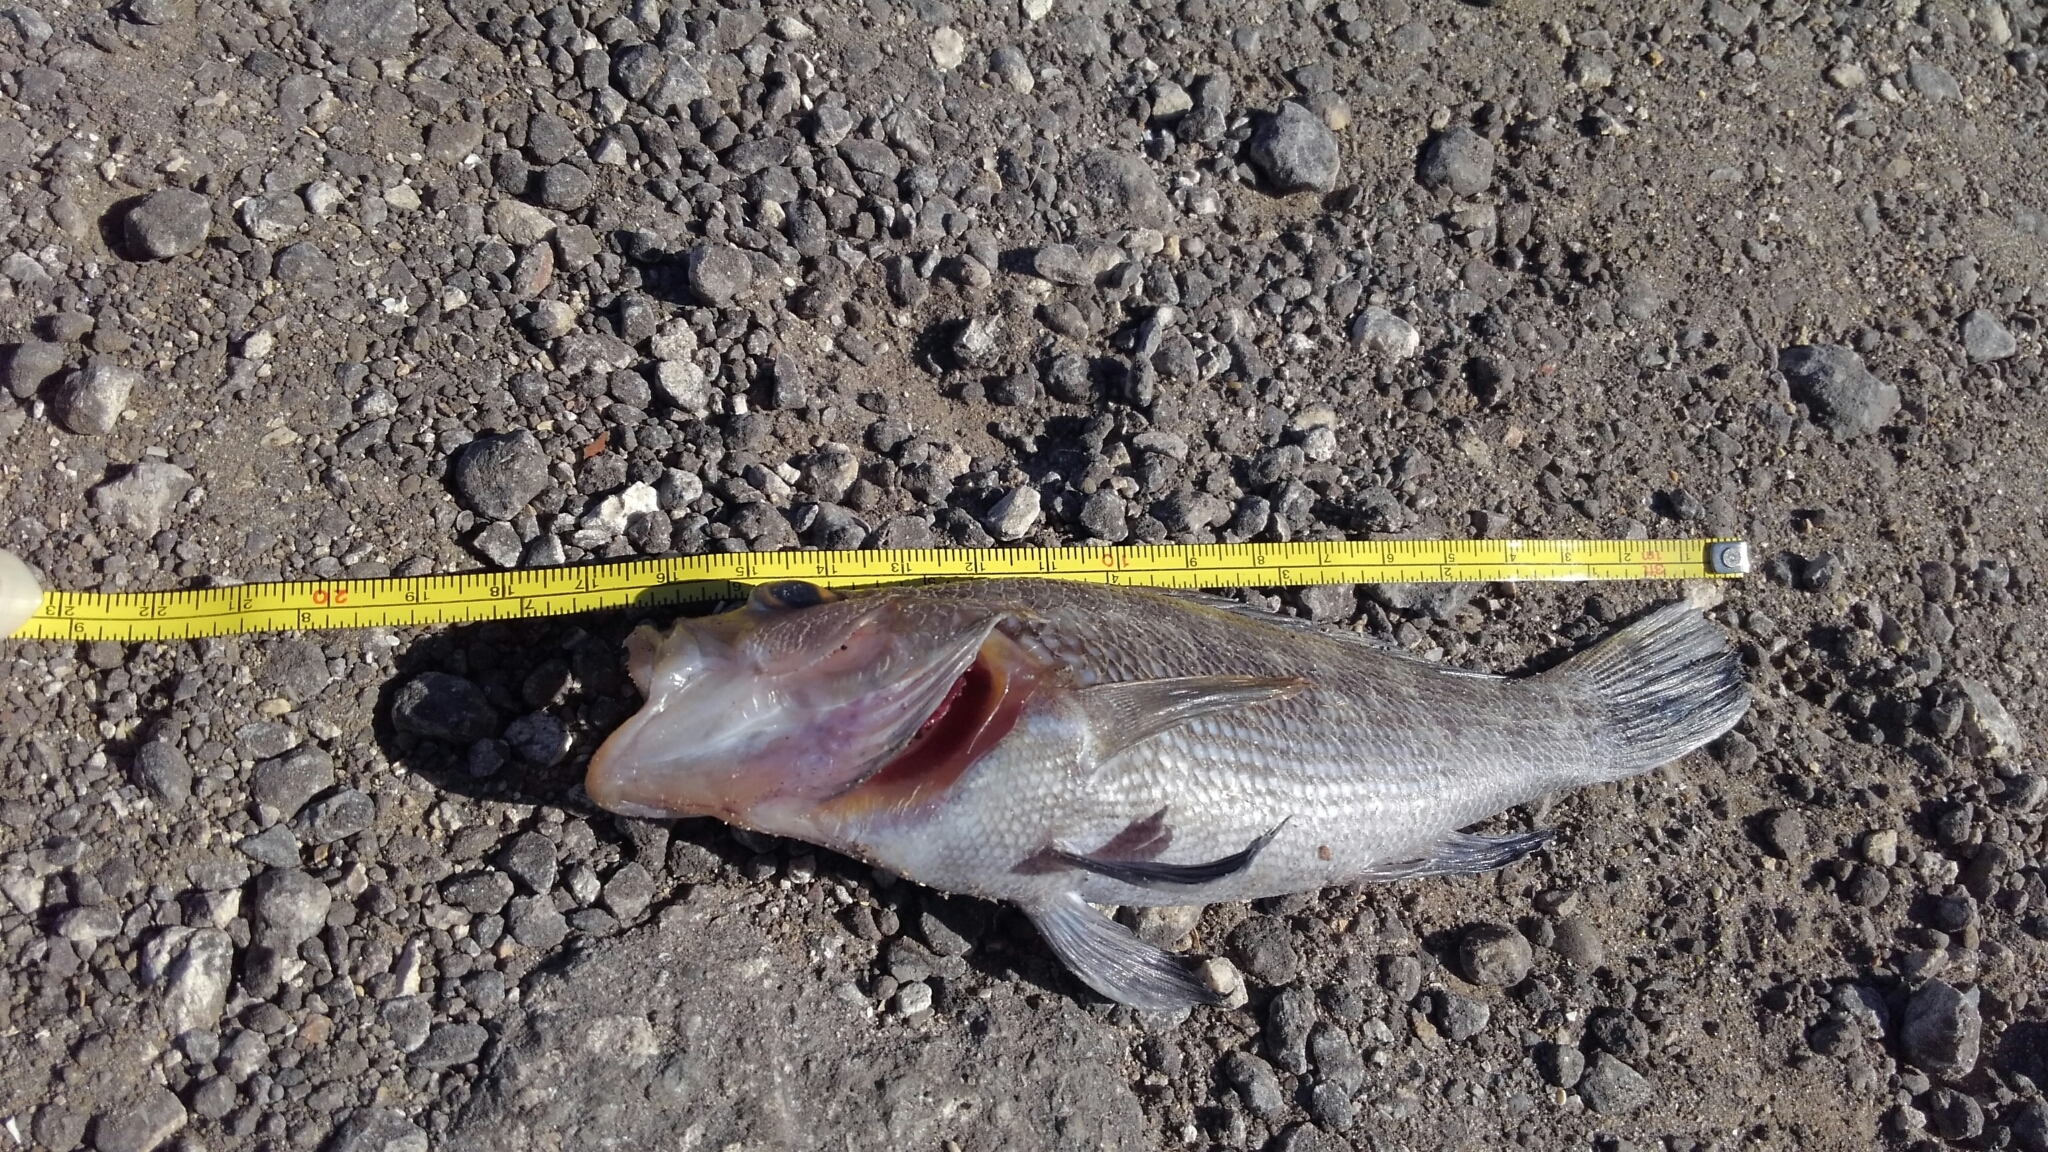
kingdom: Animalia
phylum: Chordata
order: Perciformes
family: Serranidae
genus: Centropristis
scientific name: Centropristis striata
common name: Black sea bass
